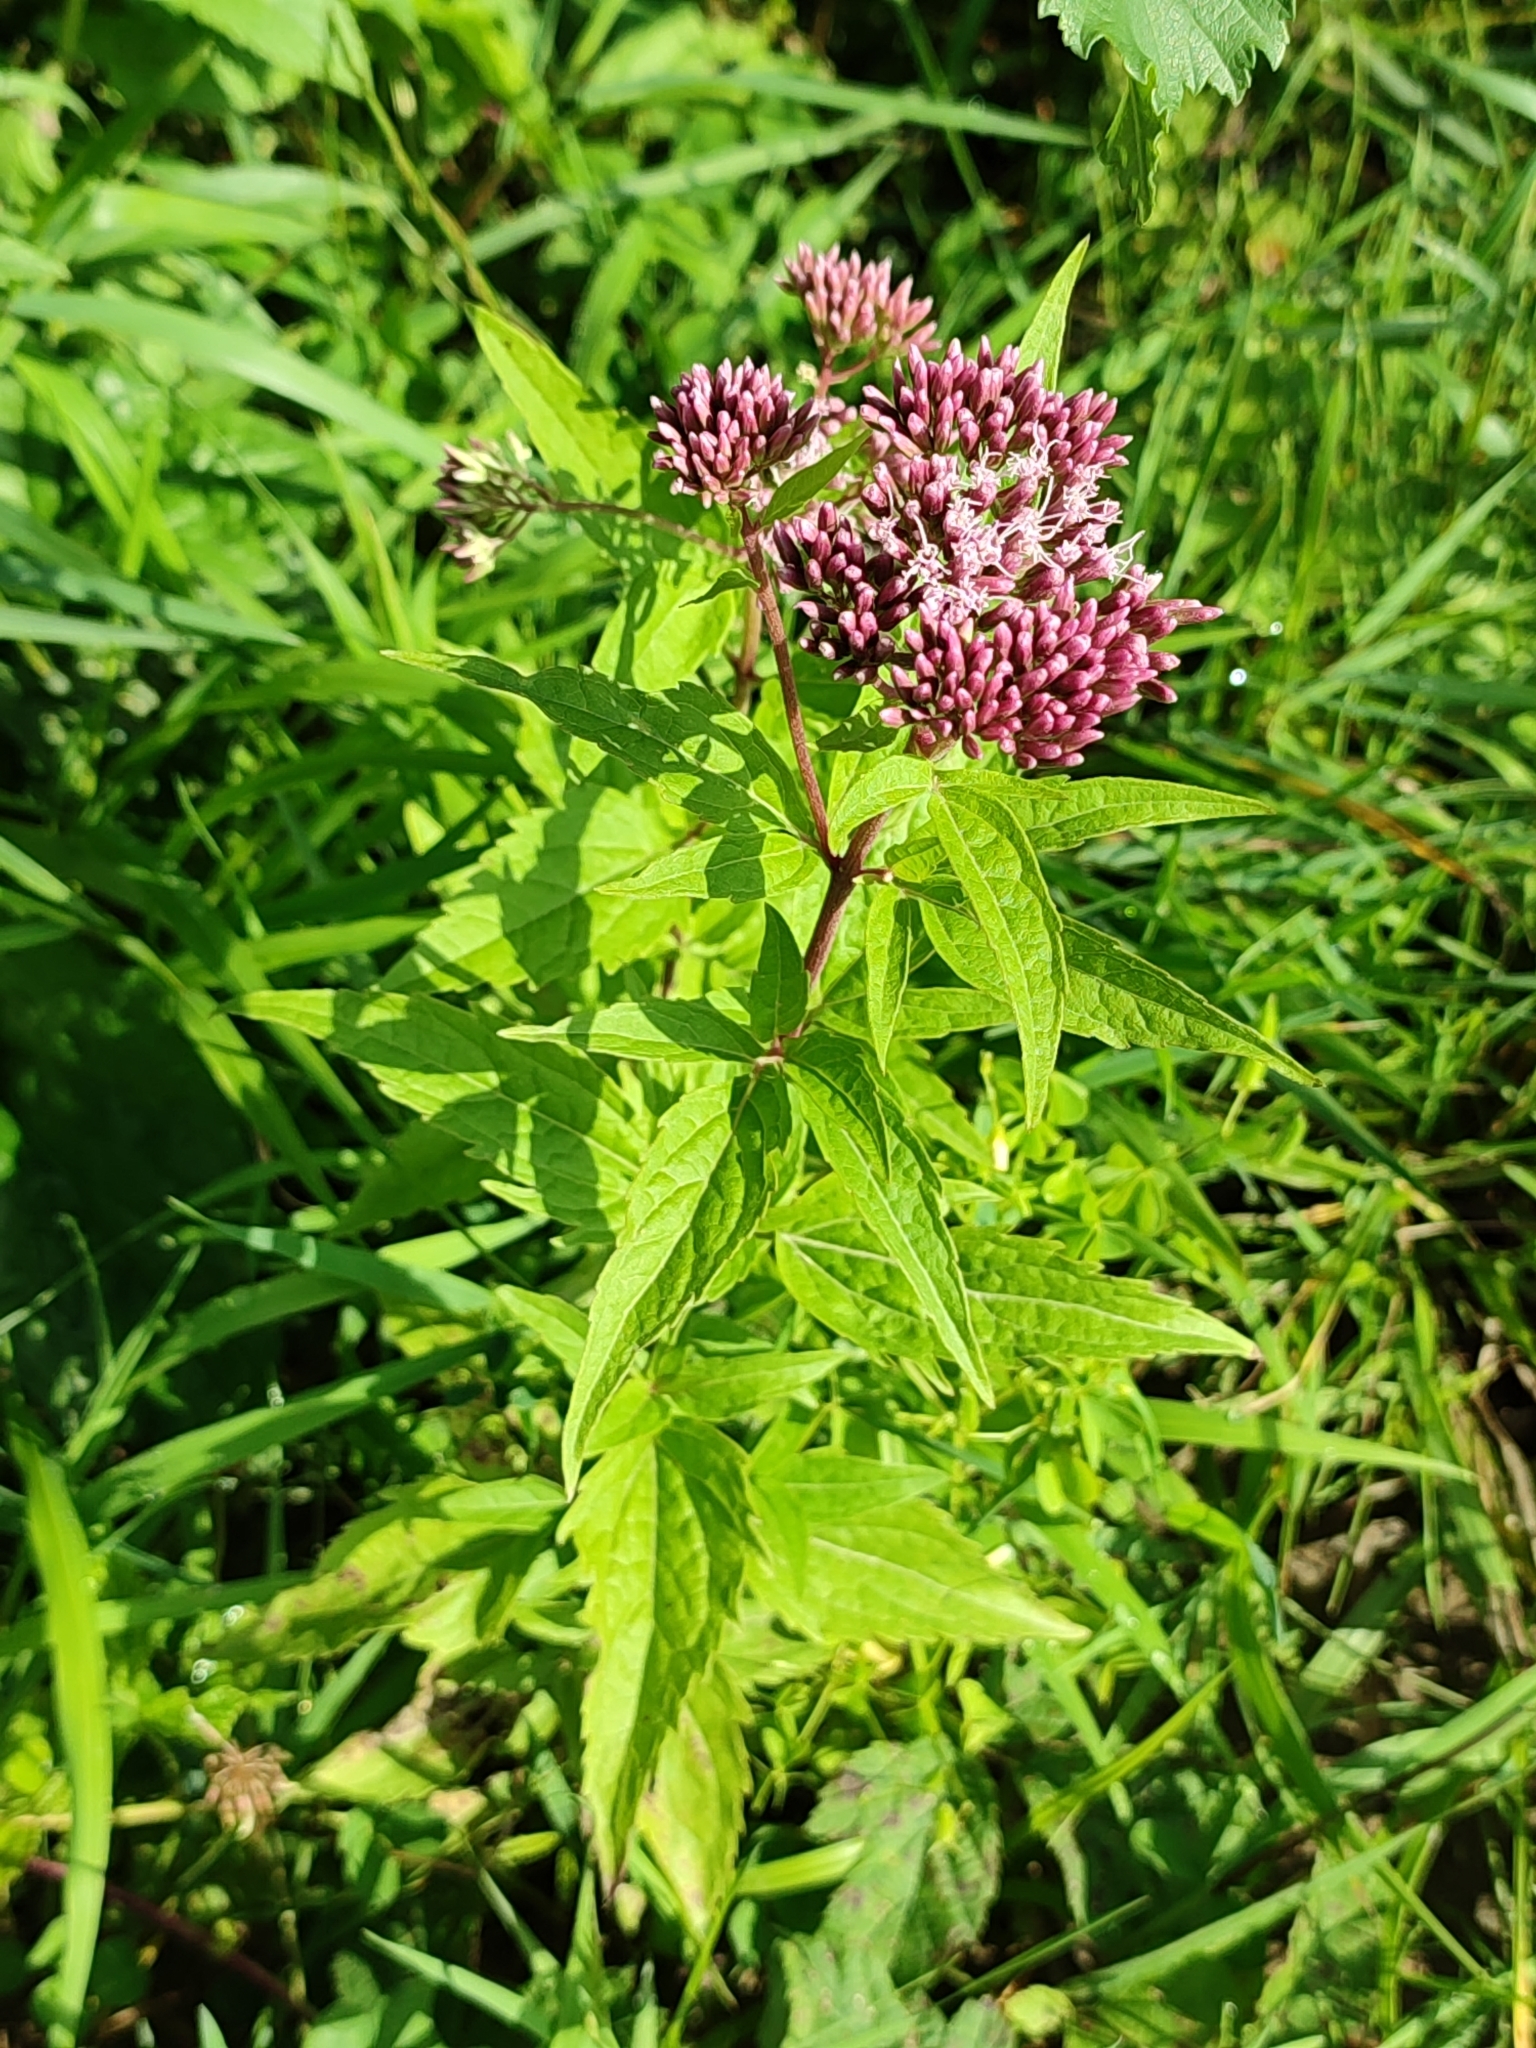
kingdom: Plantae
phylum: Tracheophyta
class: Magnoliopsida
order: Asterales
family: Asteraceae
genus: Eupatorium
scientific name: Eupatorium cannabinum
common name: Hemp-agrimony
